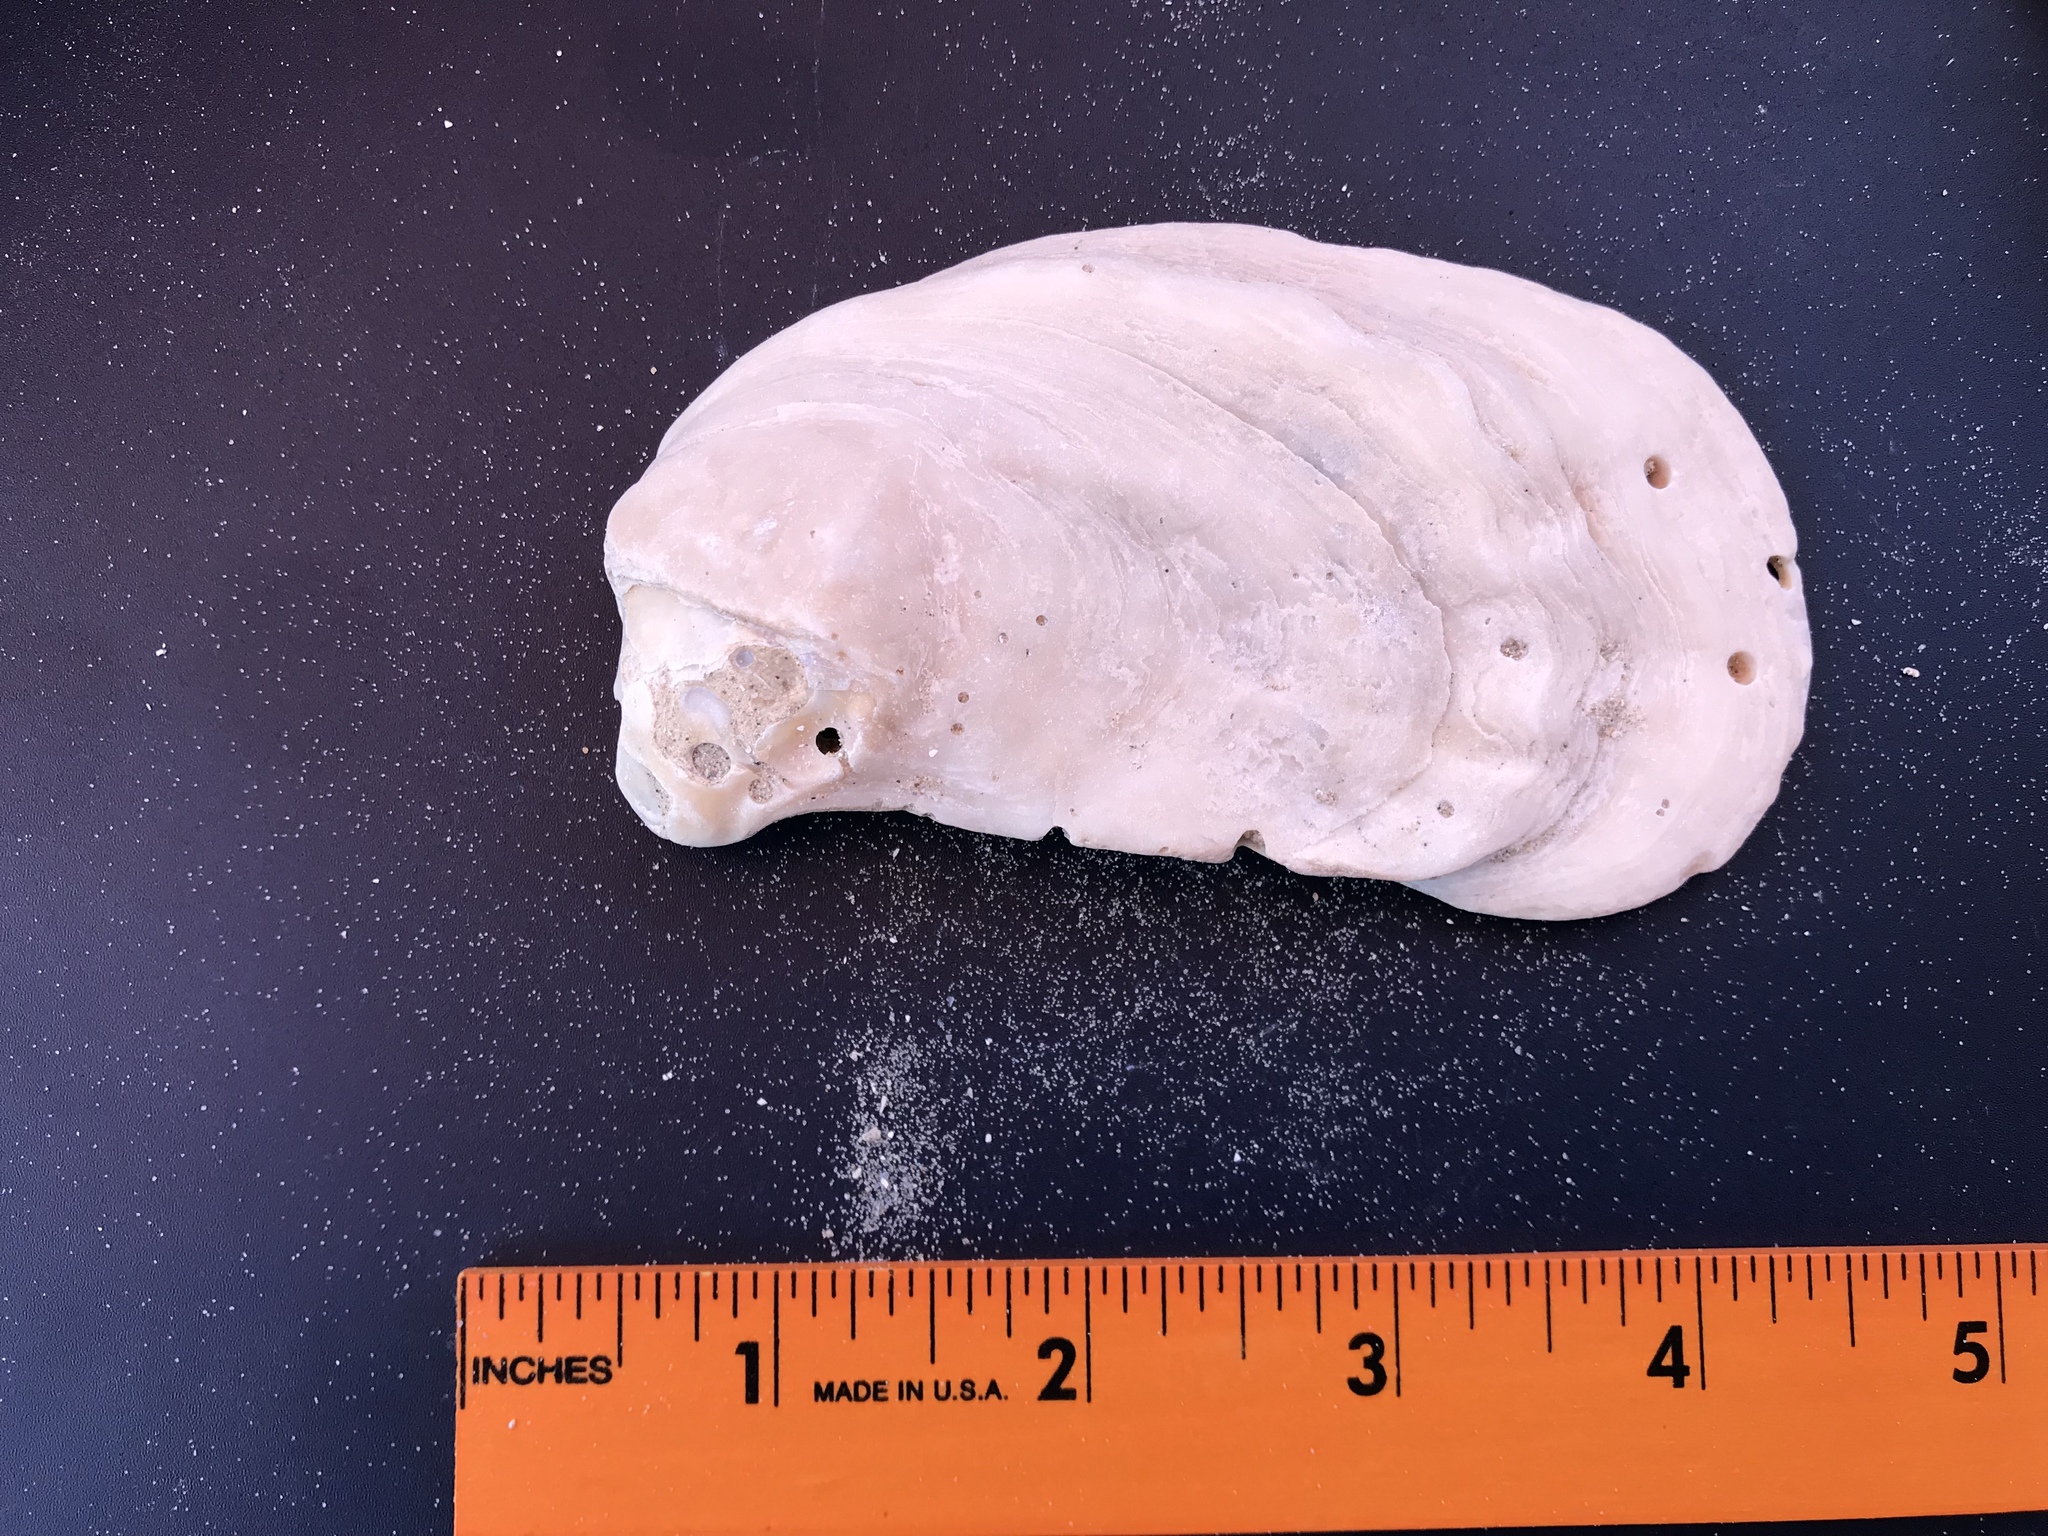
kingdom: Animalia
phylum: Mollusca
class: Bivalvia
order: Ostreida
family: Ostreidae
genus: Crassostrea
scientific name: Crassostrea virginica
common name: American oyster
